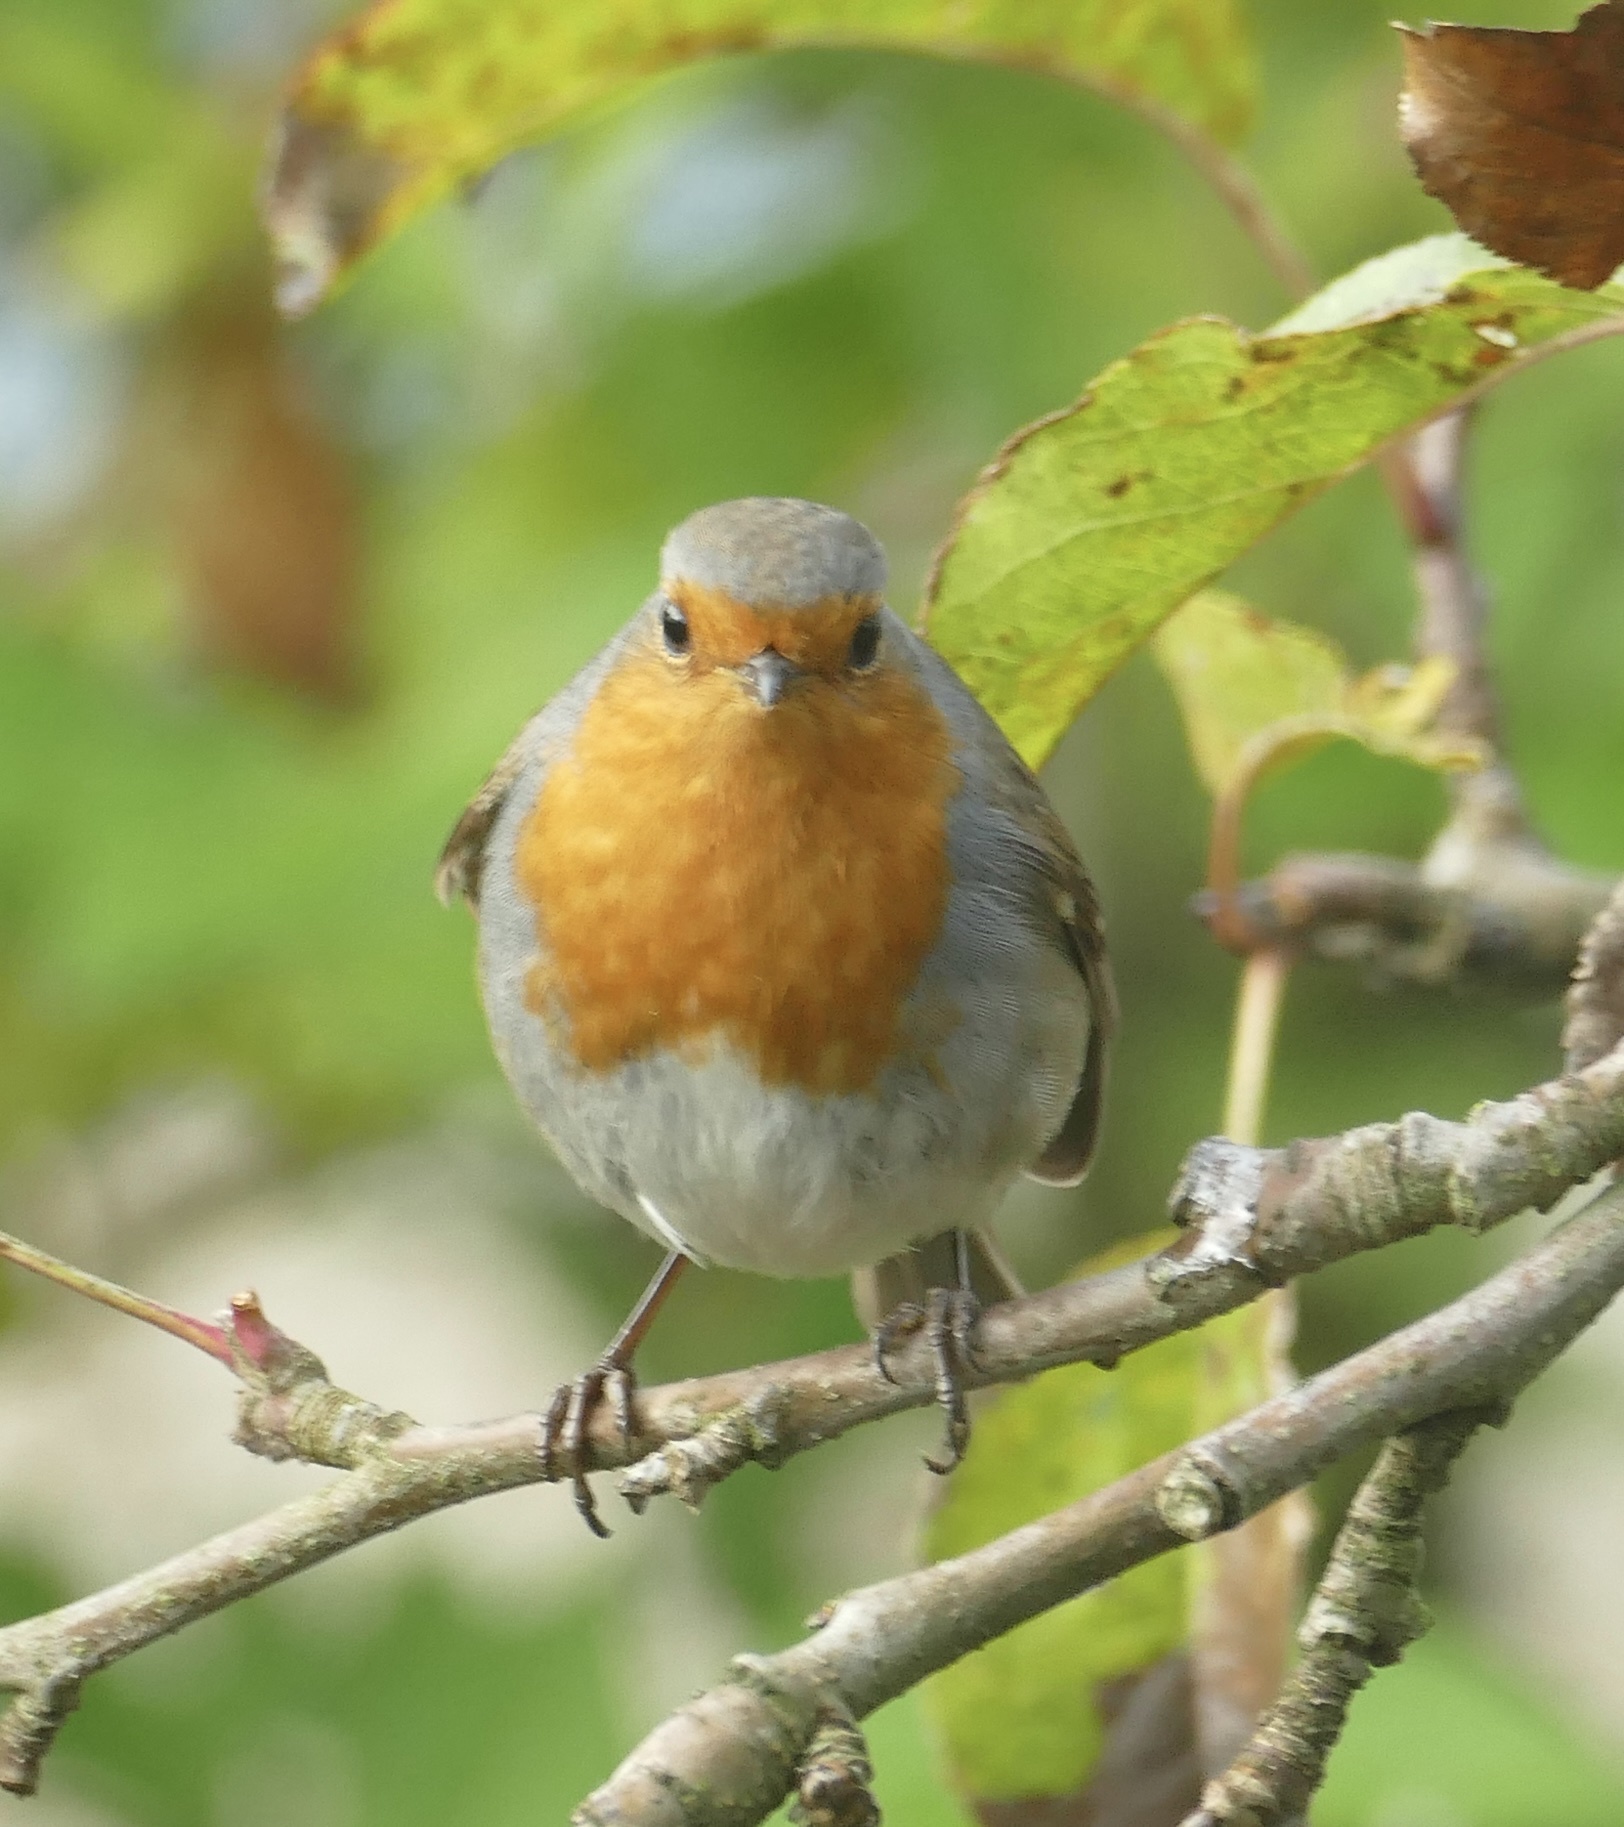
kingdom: Animalia
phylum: Chordata
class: Aves
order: Passeriformes
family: Muscicapidae
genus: Erithacus
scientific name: Erithacus rubecula
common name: European robin
